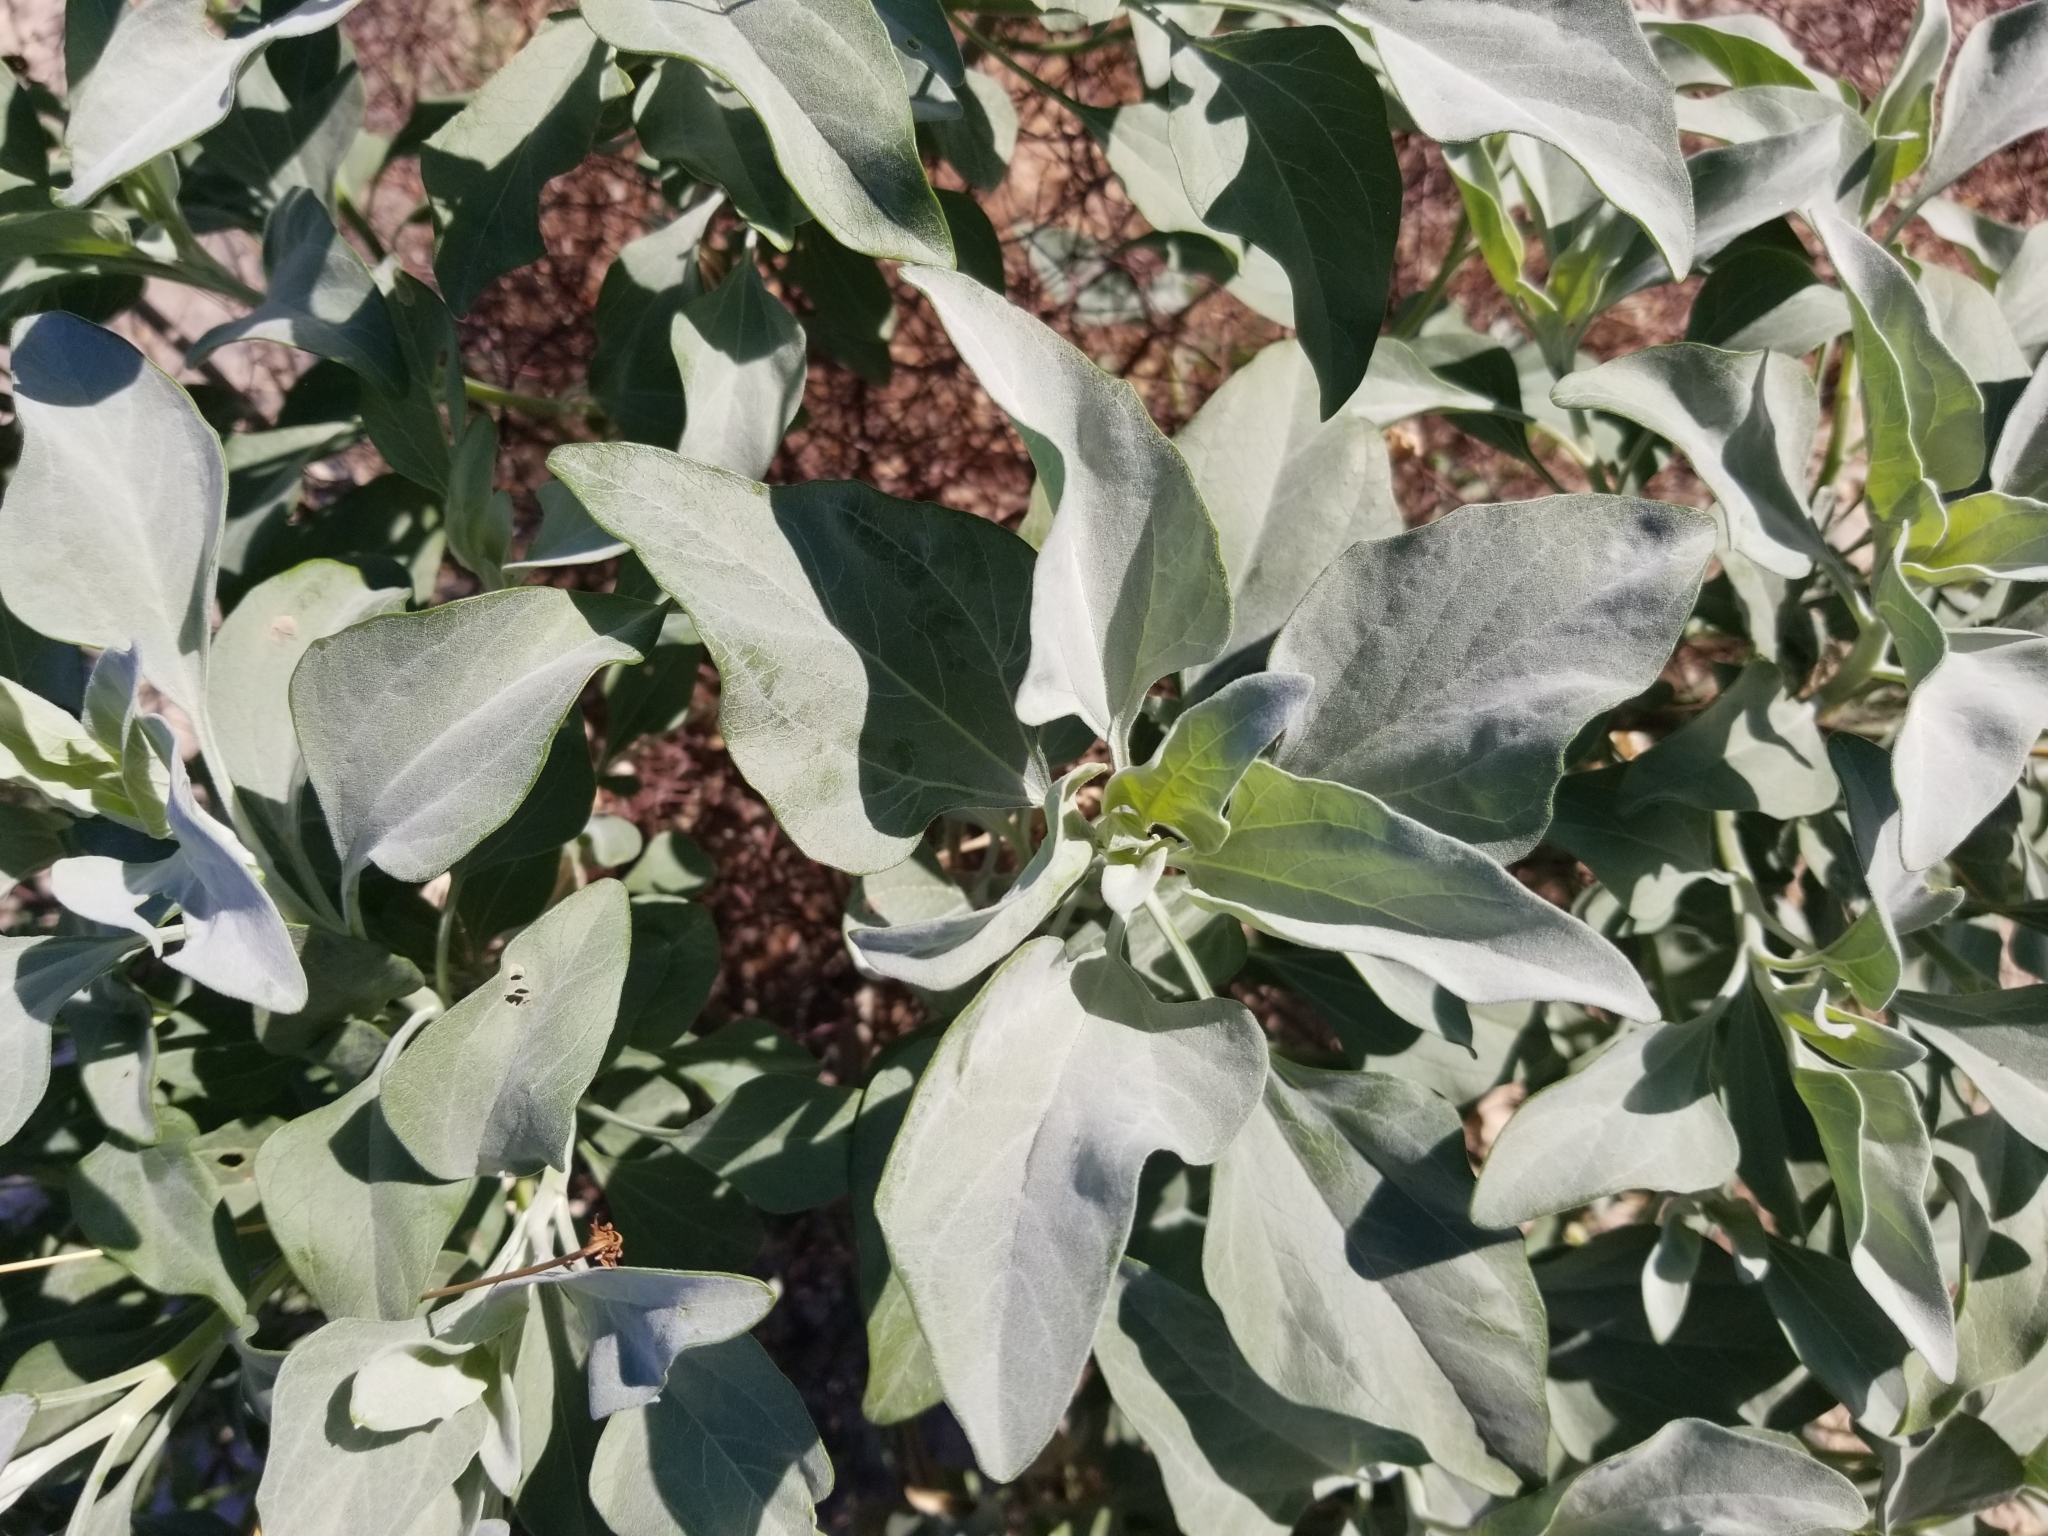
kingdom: Plantae
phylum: Tracheophyta
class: Magnoliopsida
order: Asterales
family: Asteraceae
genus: Encelia
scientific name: Encelia farinosa
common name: Brittlebush
